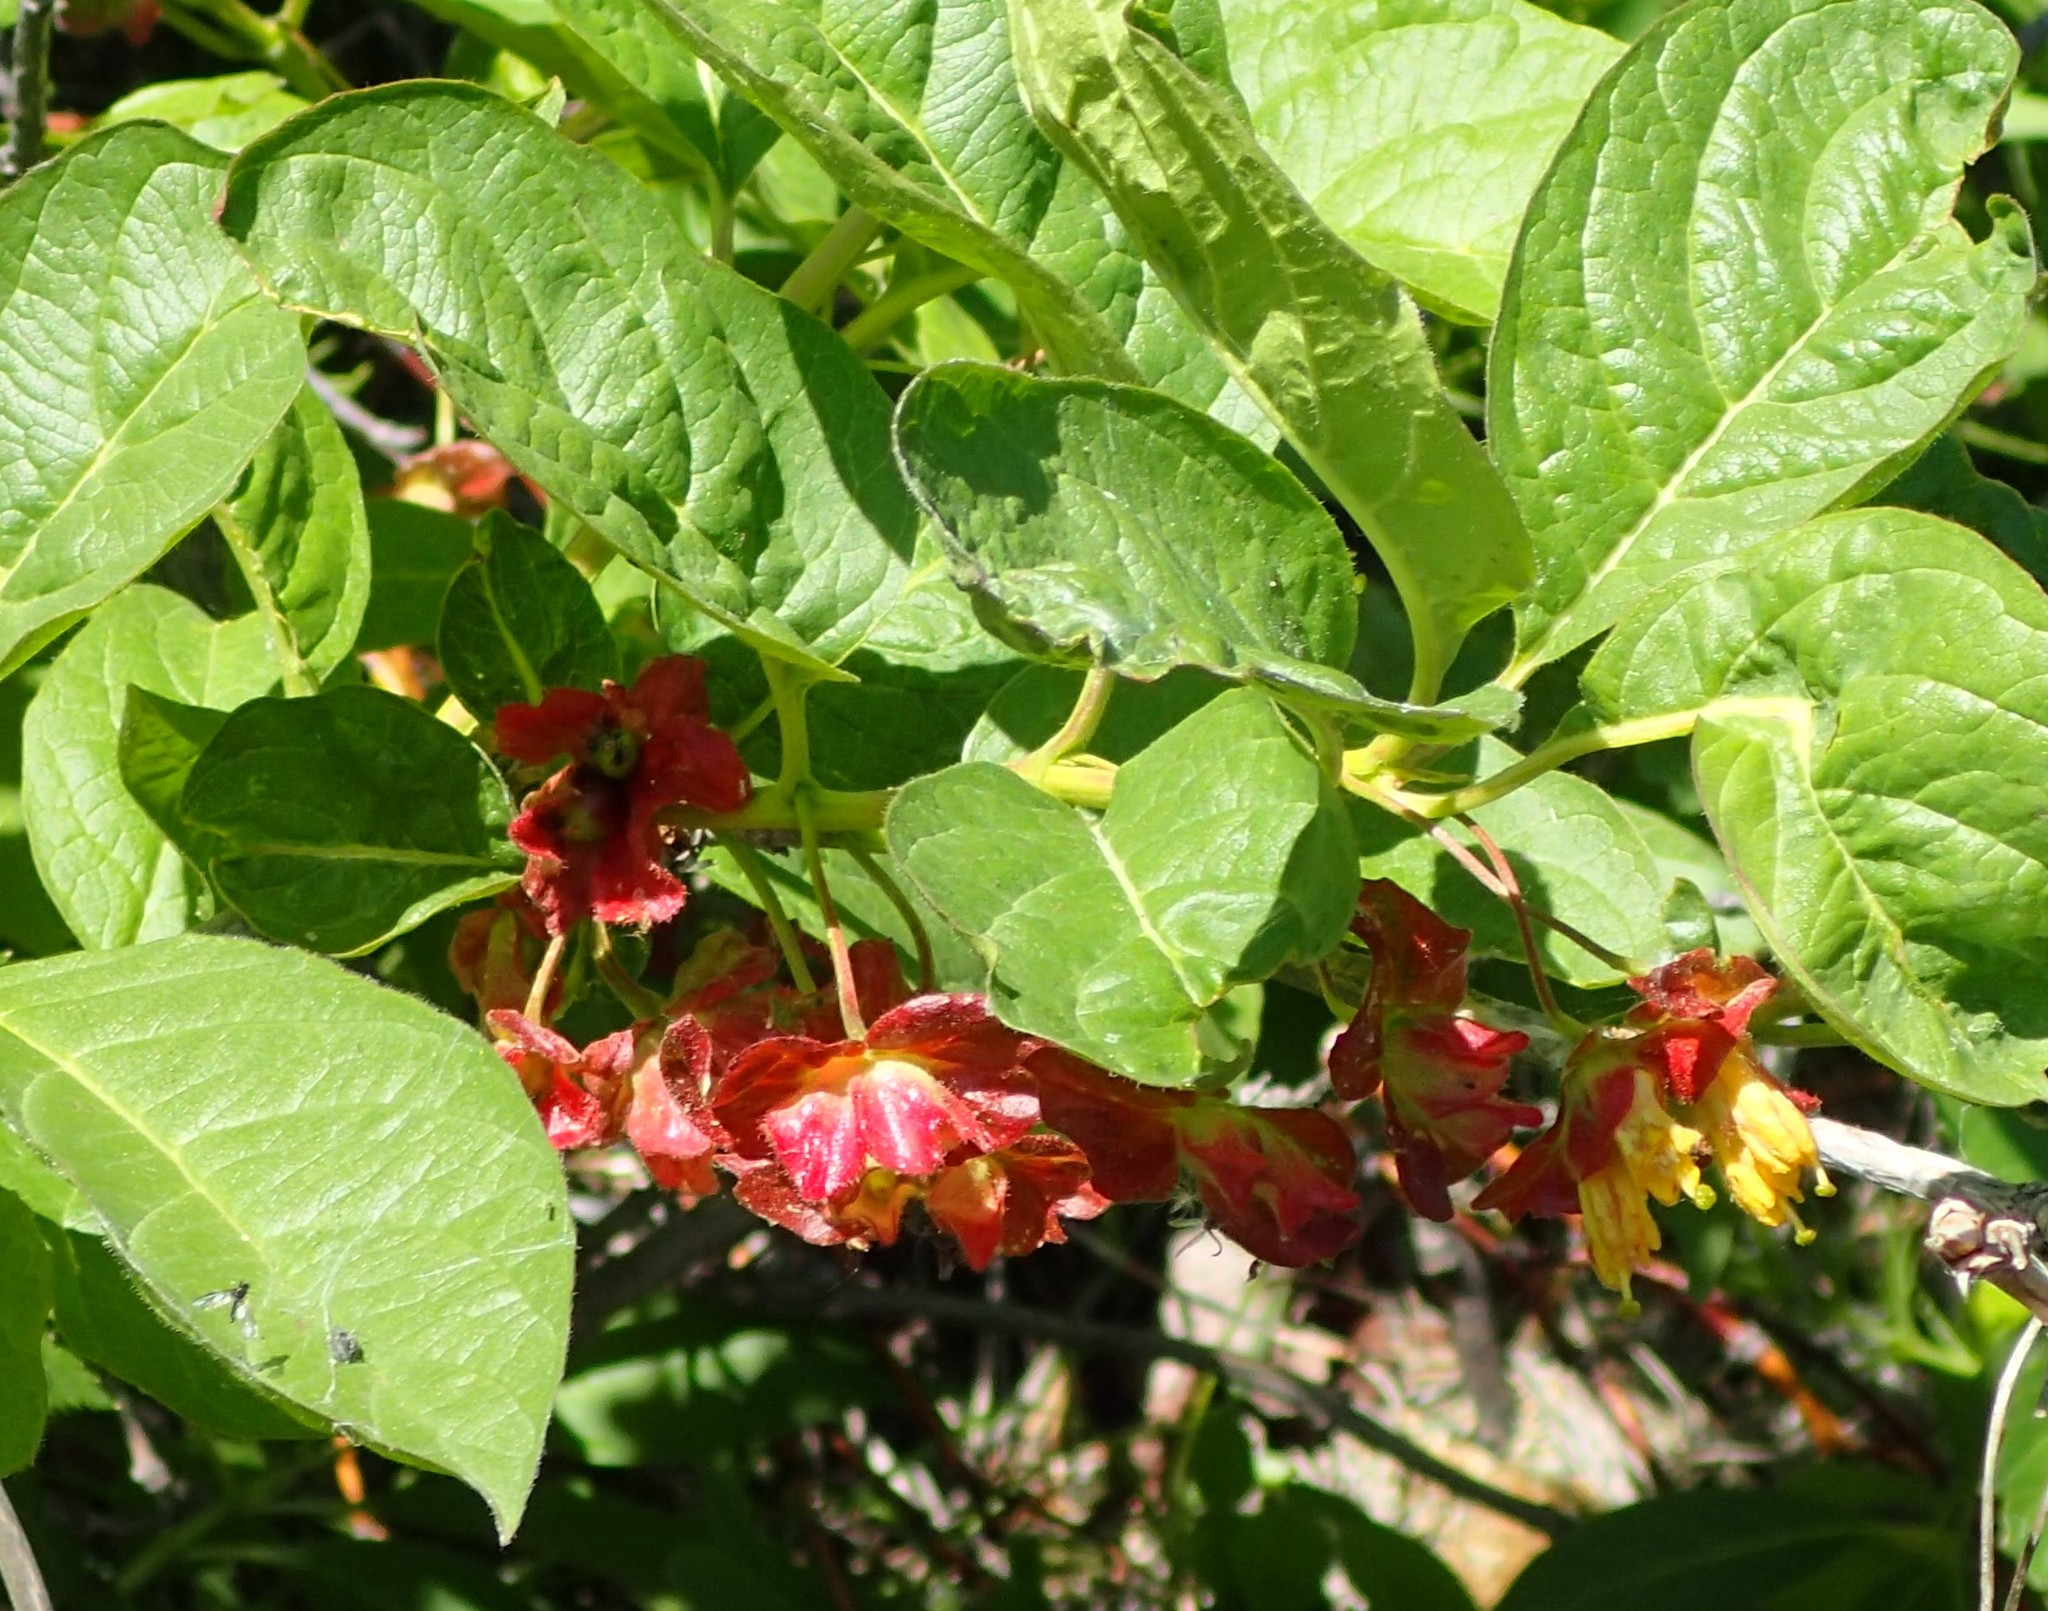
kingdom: Plantae
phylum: Tracheophyta
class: Magnoliopsida
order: Dipsacales
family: Caprifoliaceae
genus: Lonicera
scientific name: Lonicera involucrata
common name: Californian honeysuckle
